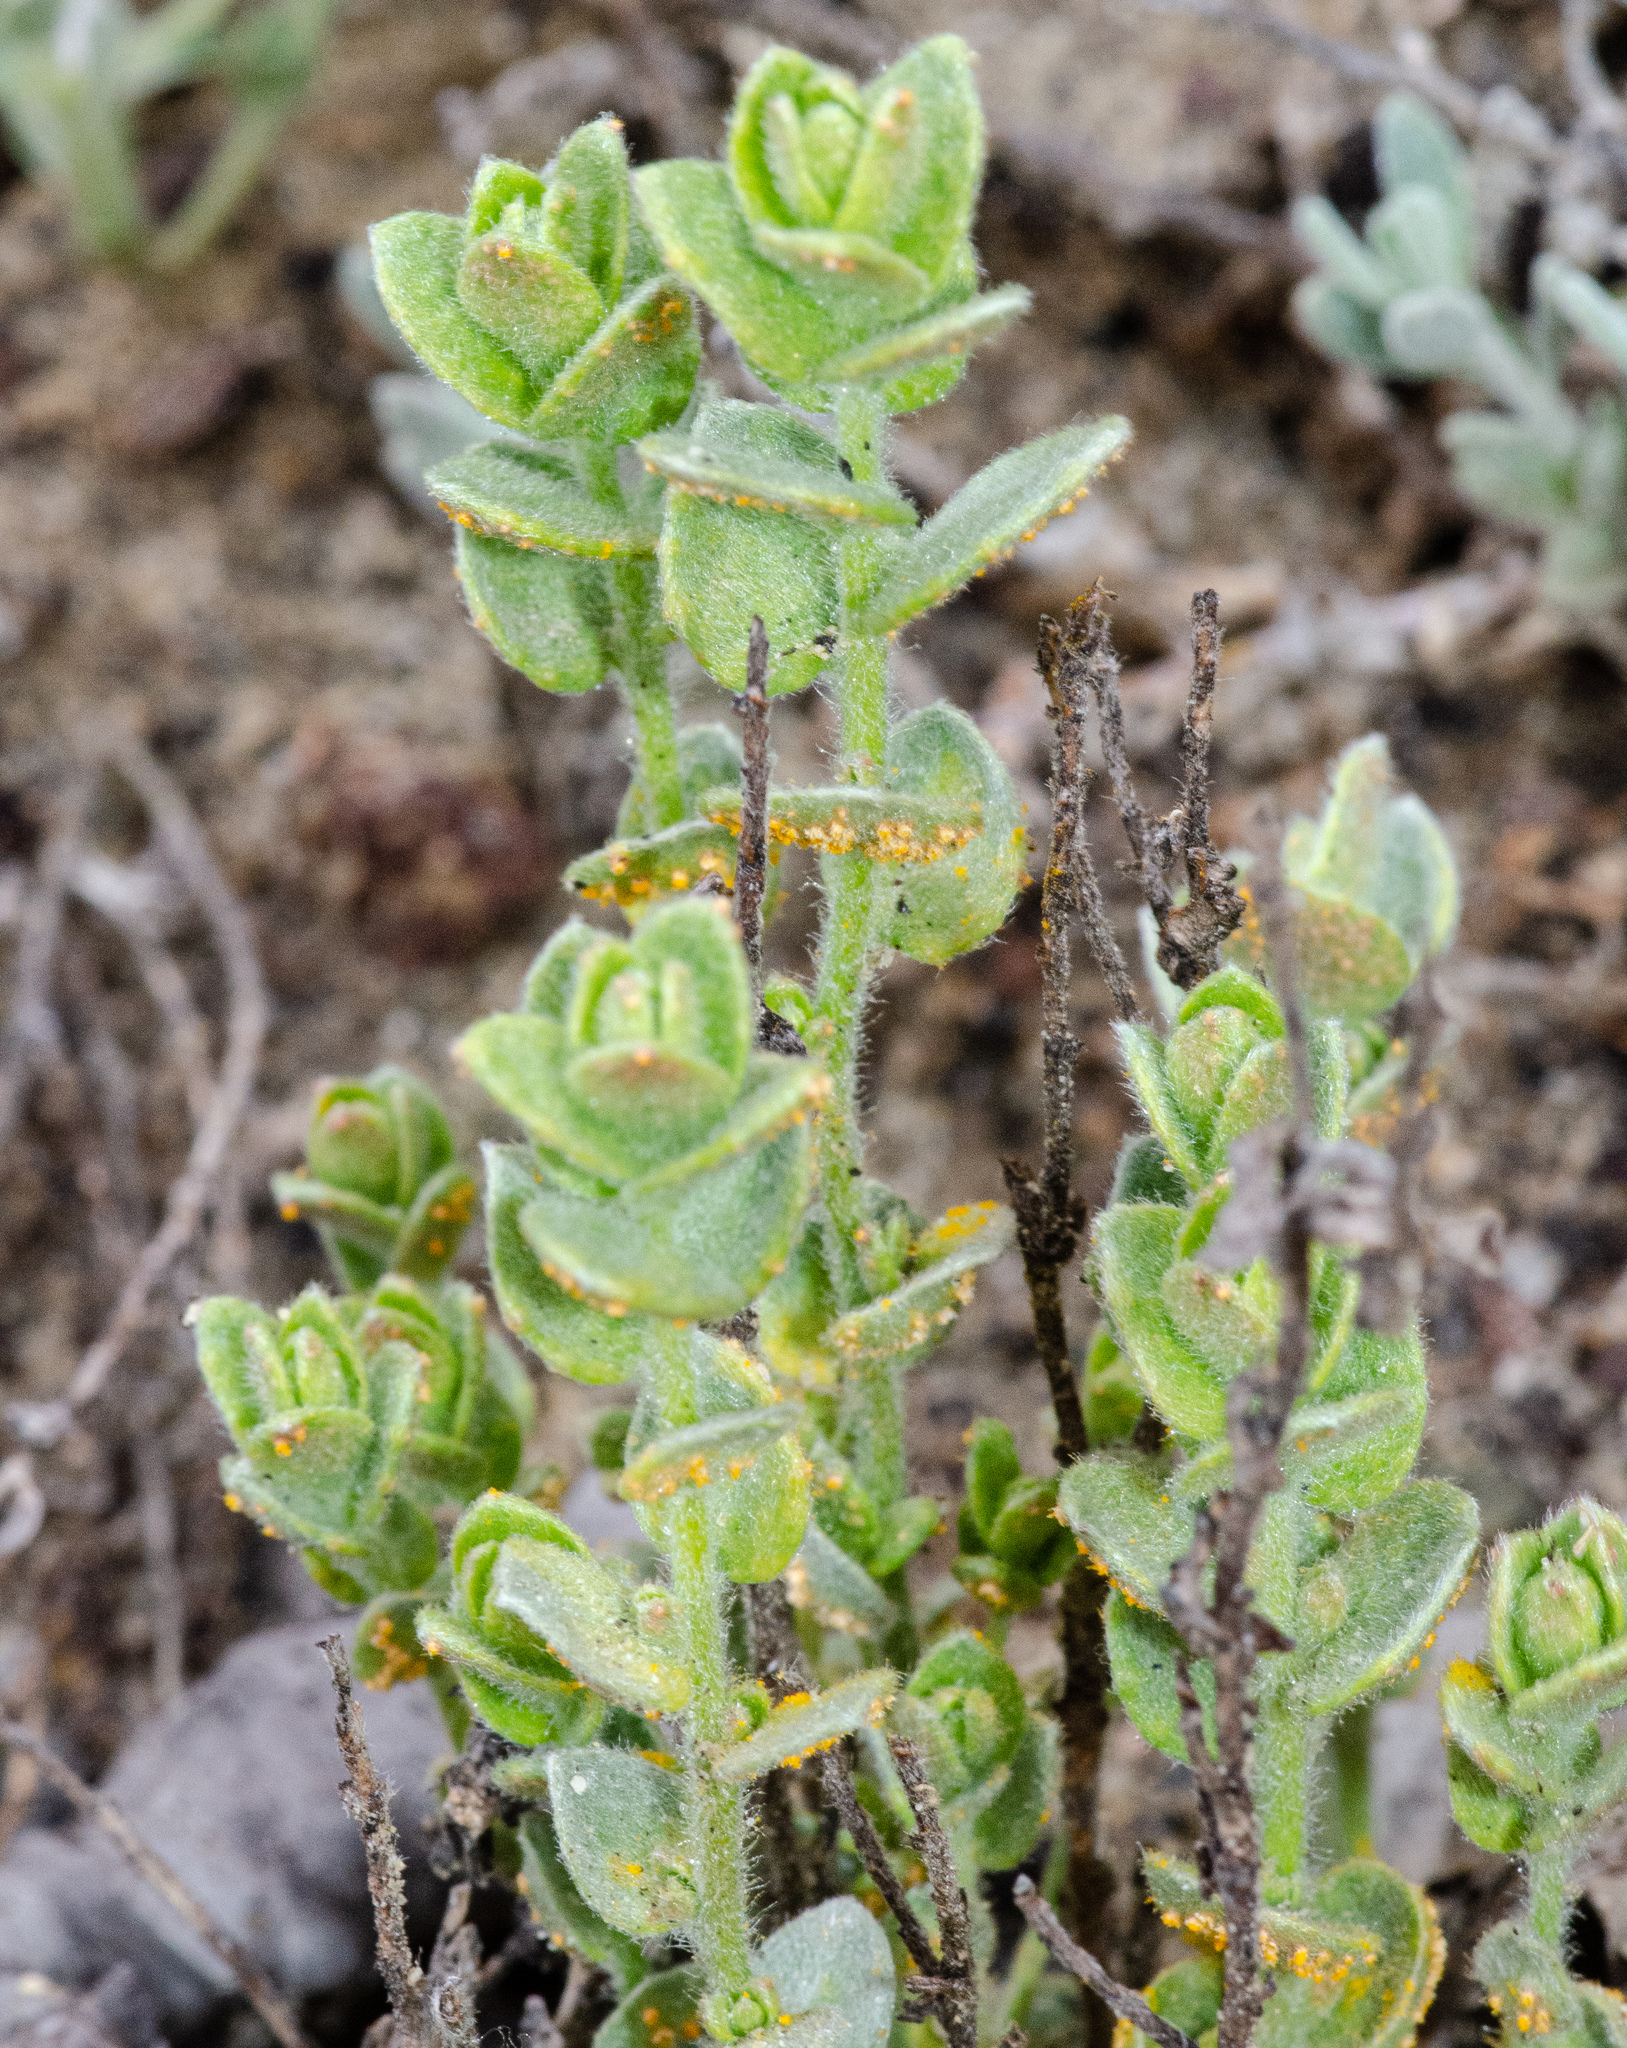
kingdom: Plantae
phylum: Tracheophyta
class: Magnoliopsida
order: Solanales
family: Convolvulaceae
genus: Cressa
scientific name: Cressa truxillensis
